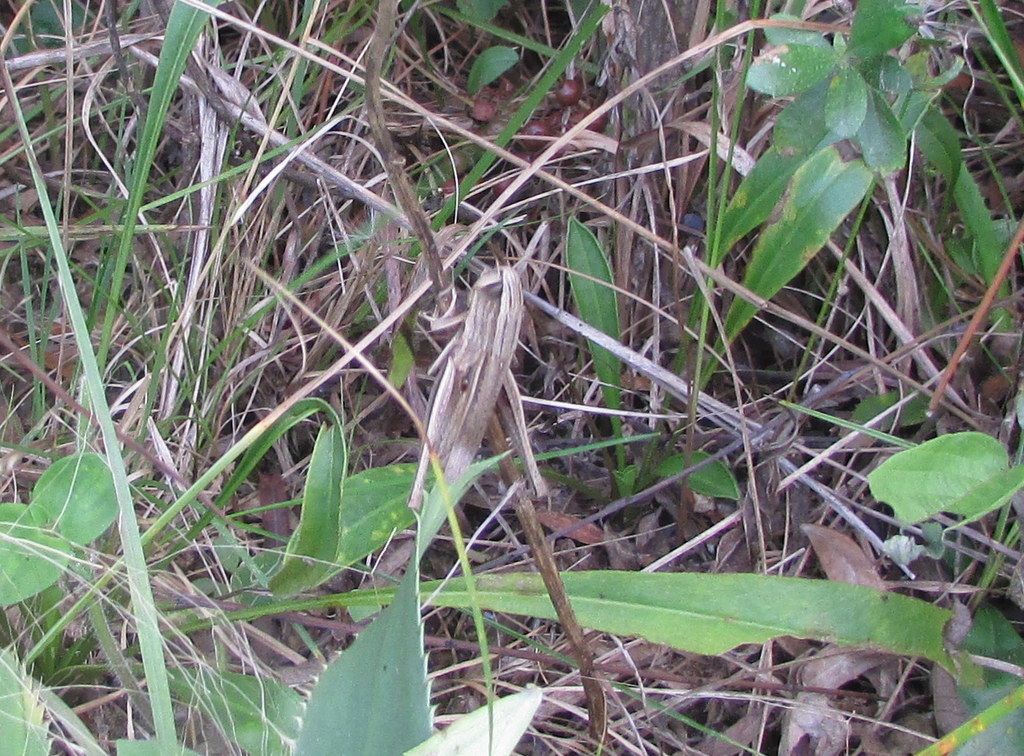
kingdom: Animalia
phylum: Arthropoda
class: Insecta
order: Orthoptera
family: Acrididae
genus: Amblytropidia
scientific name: Amblytropidia australis
